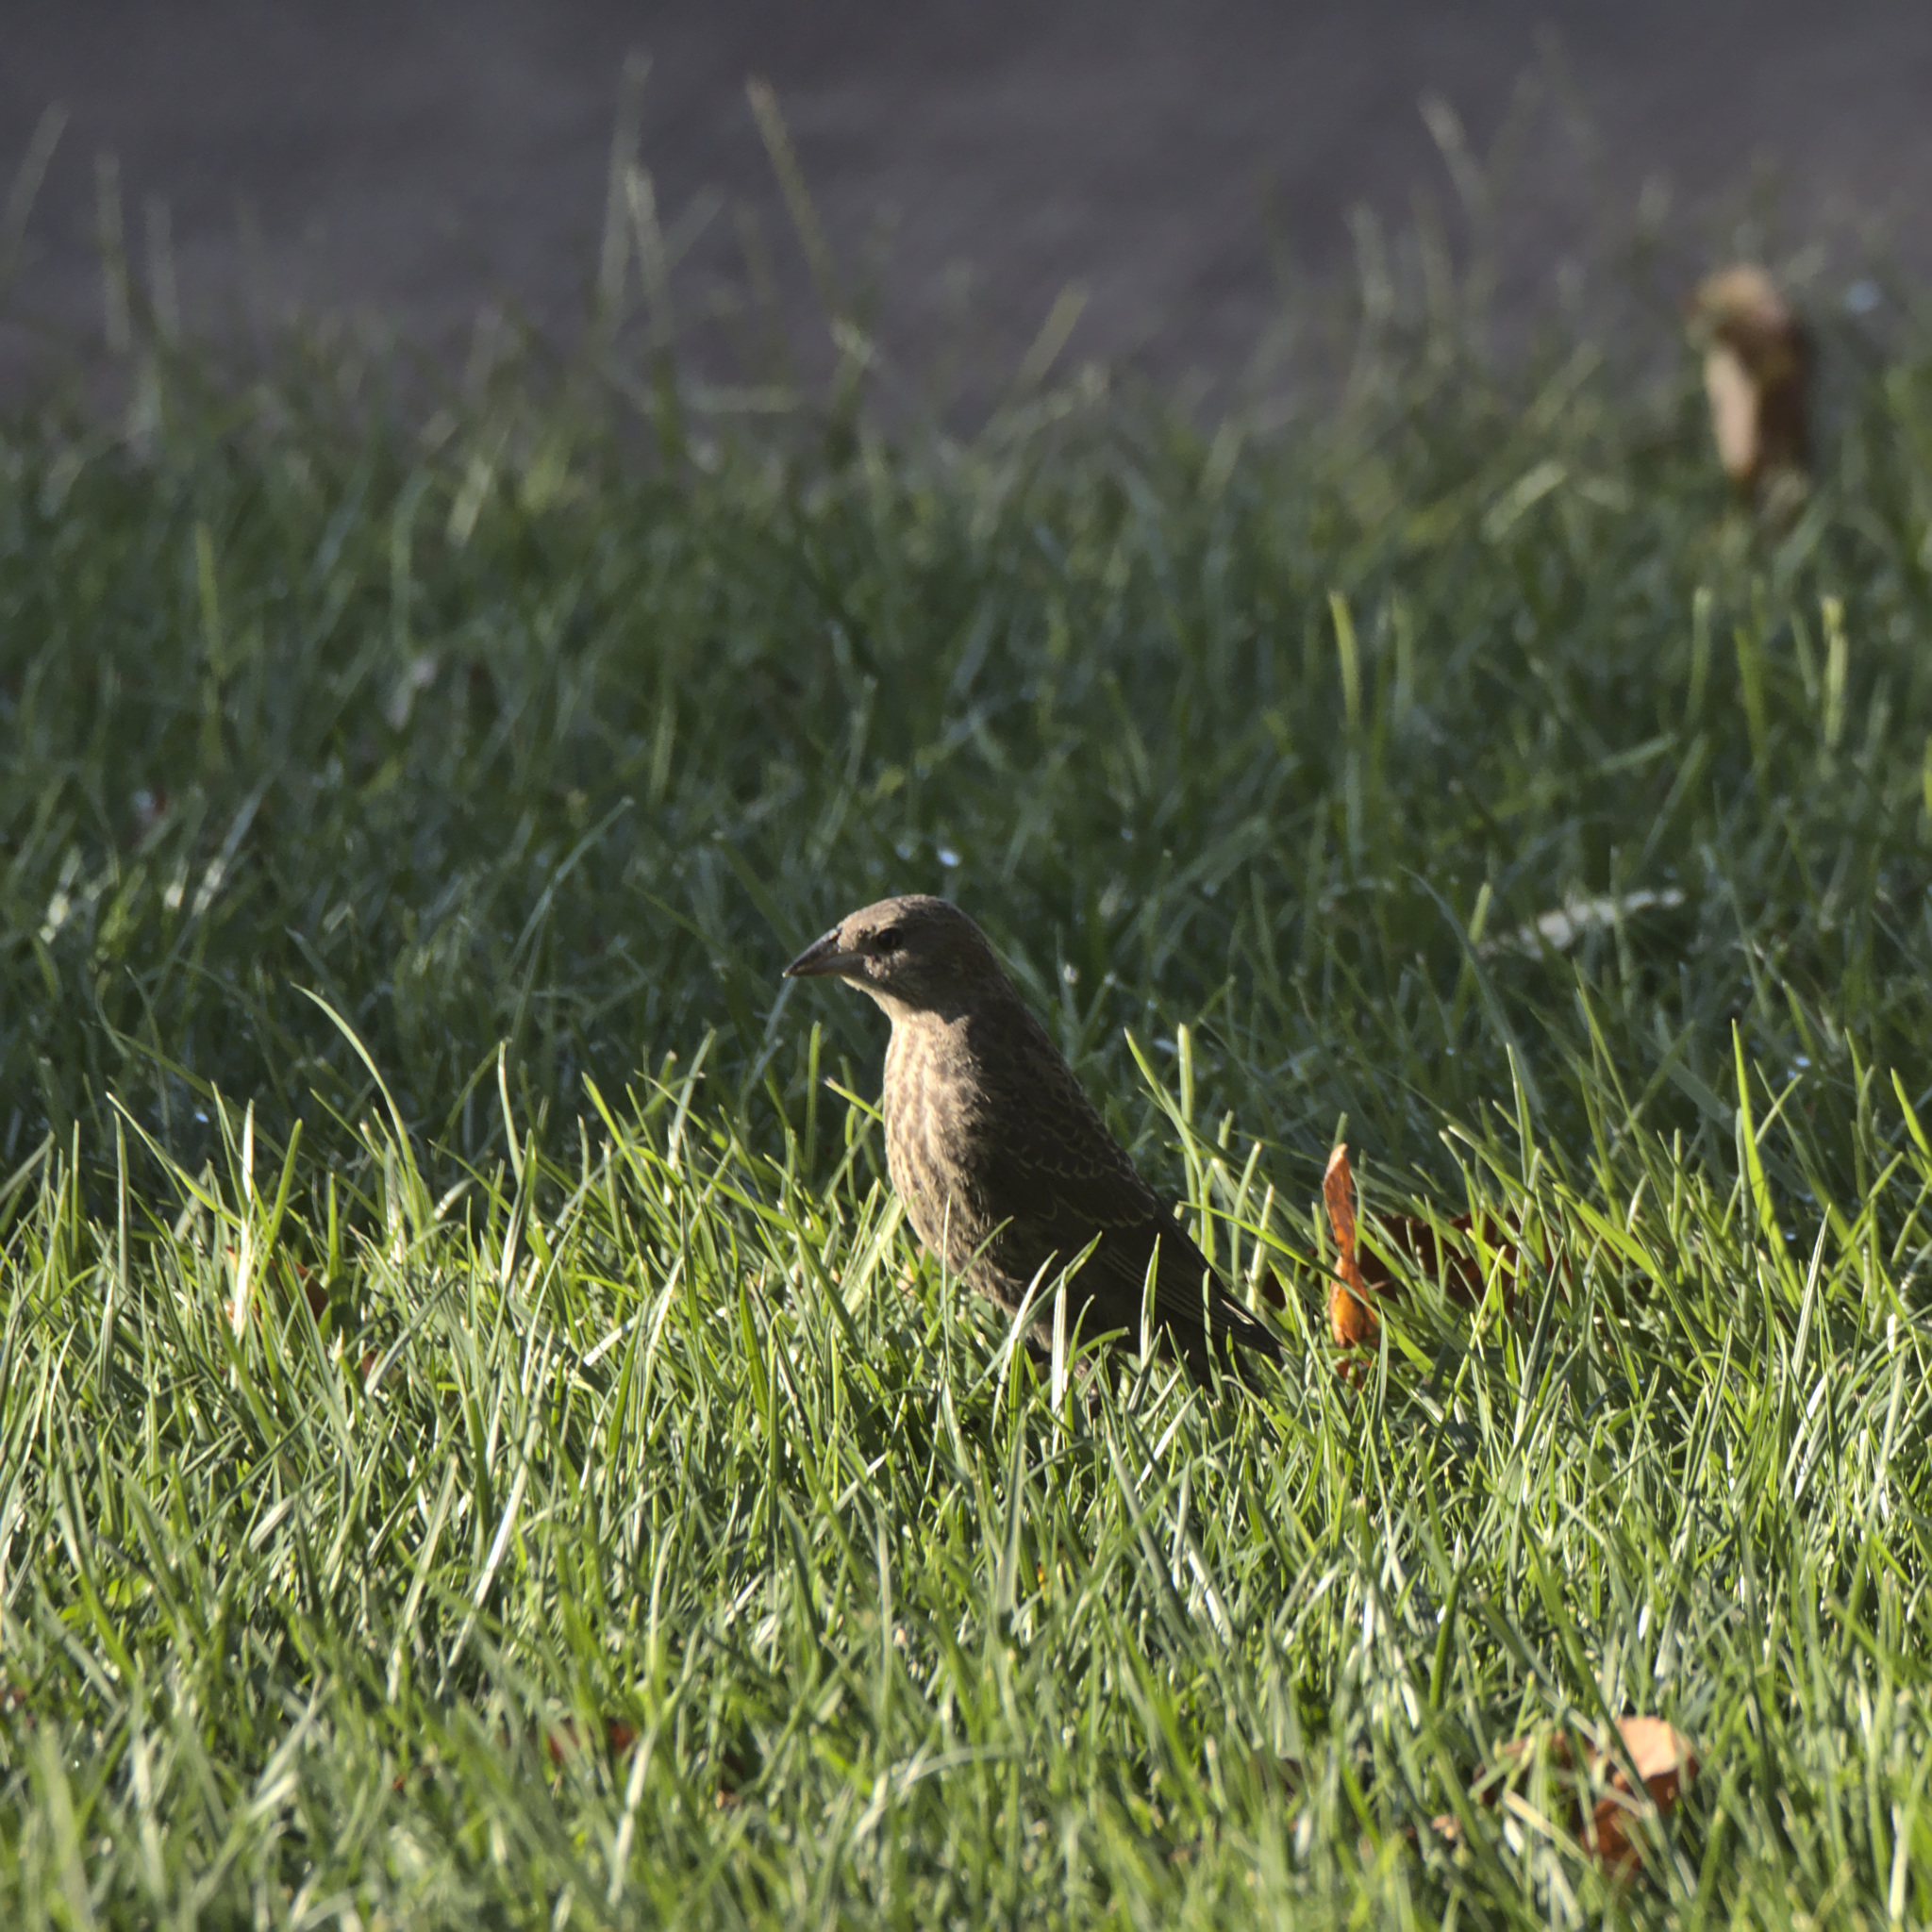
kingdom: Animalia
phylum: Chordata
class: Aves
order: Passeriformes
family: Icteridae
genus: Molothrus
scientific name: Molothrus ater
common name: Brown-headed cowbird
